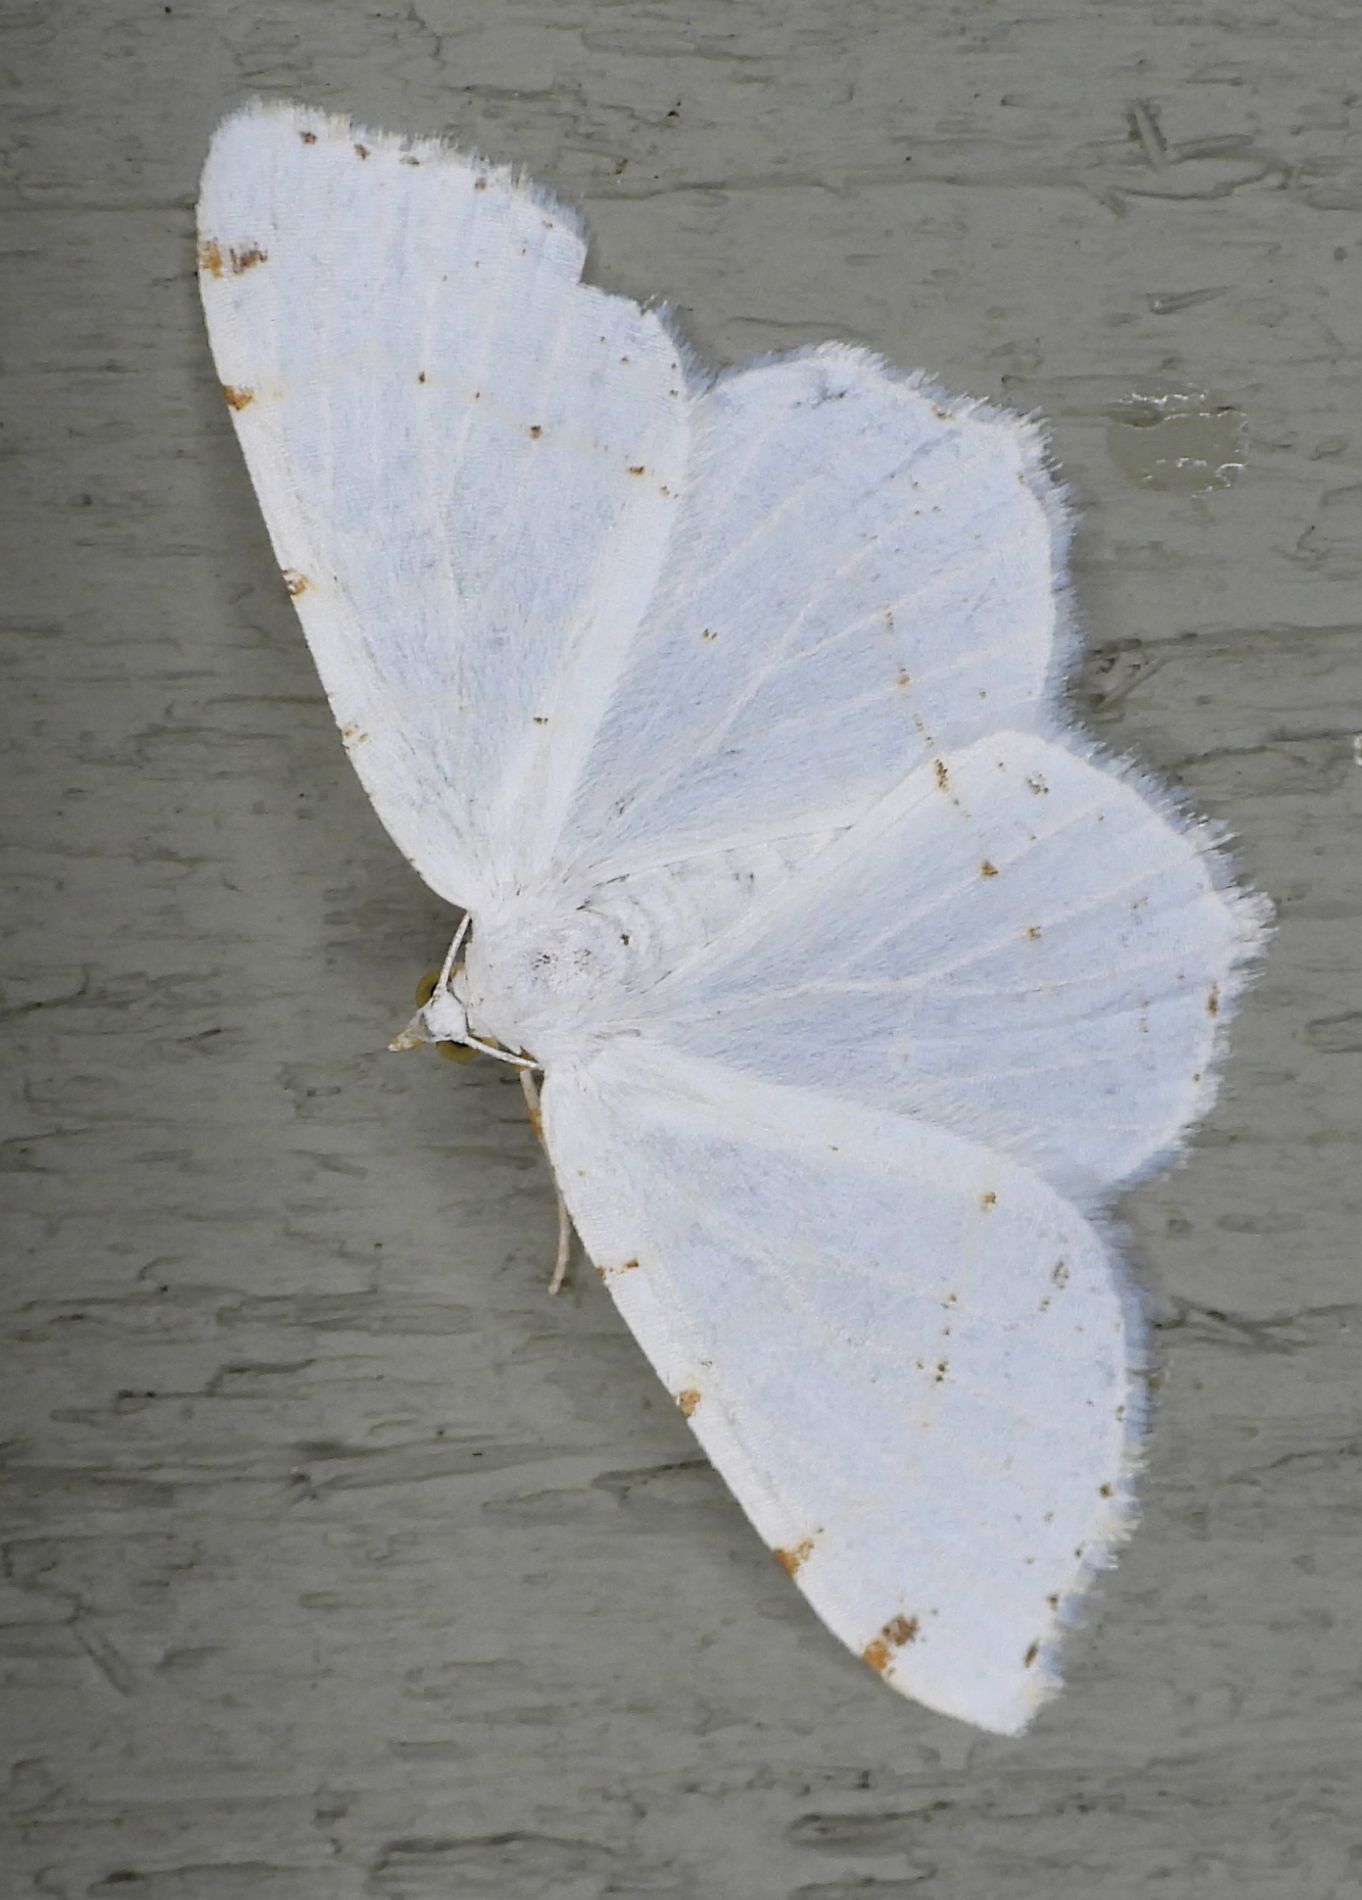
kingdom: Animalia
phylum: Arthropoda
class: Insecta
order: Lepidoptera
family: Geometridae
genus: Macaria
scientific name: Macaria pustularia
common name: Lesser maple spanworm moth
